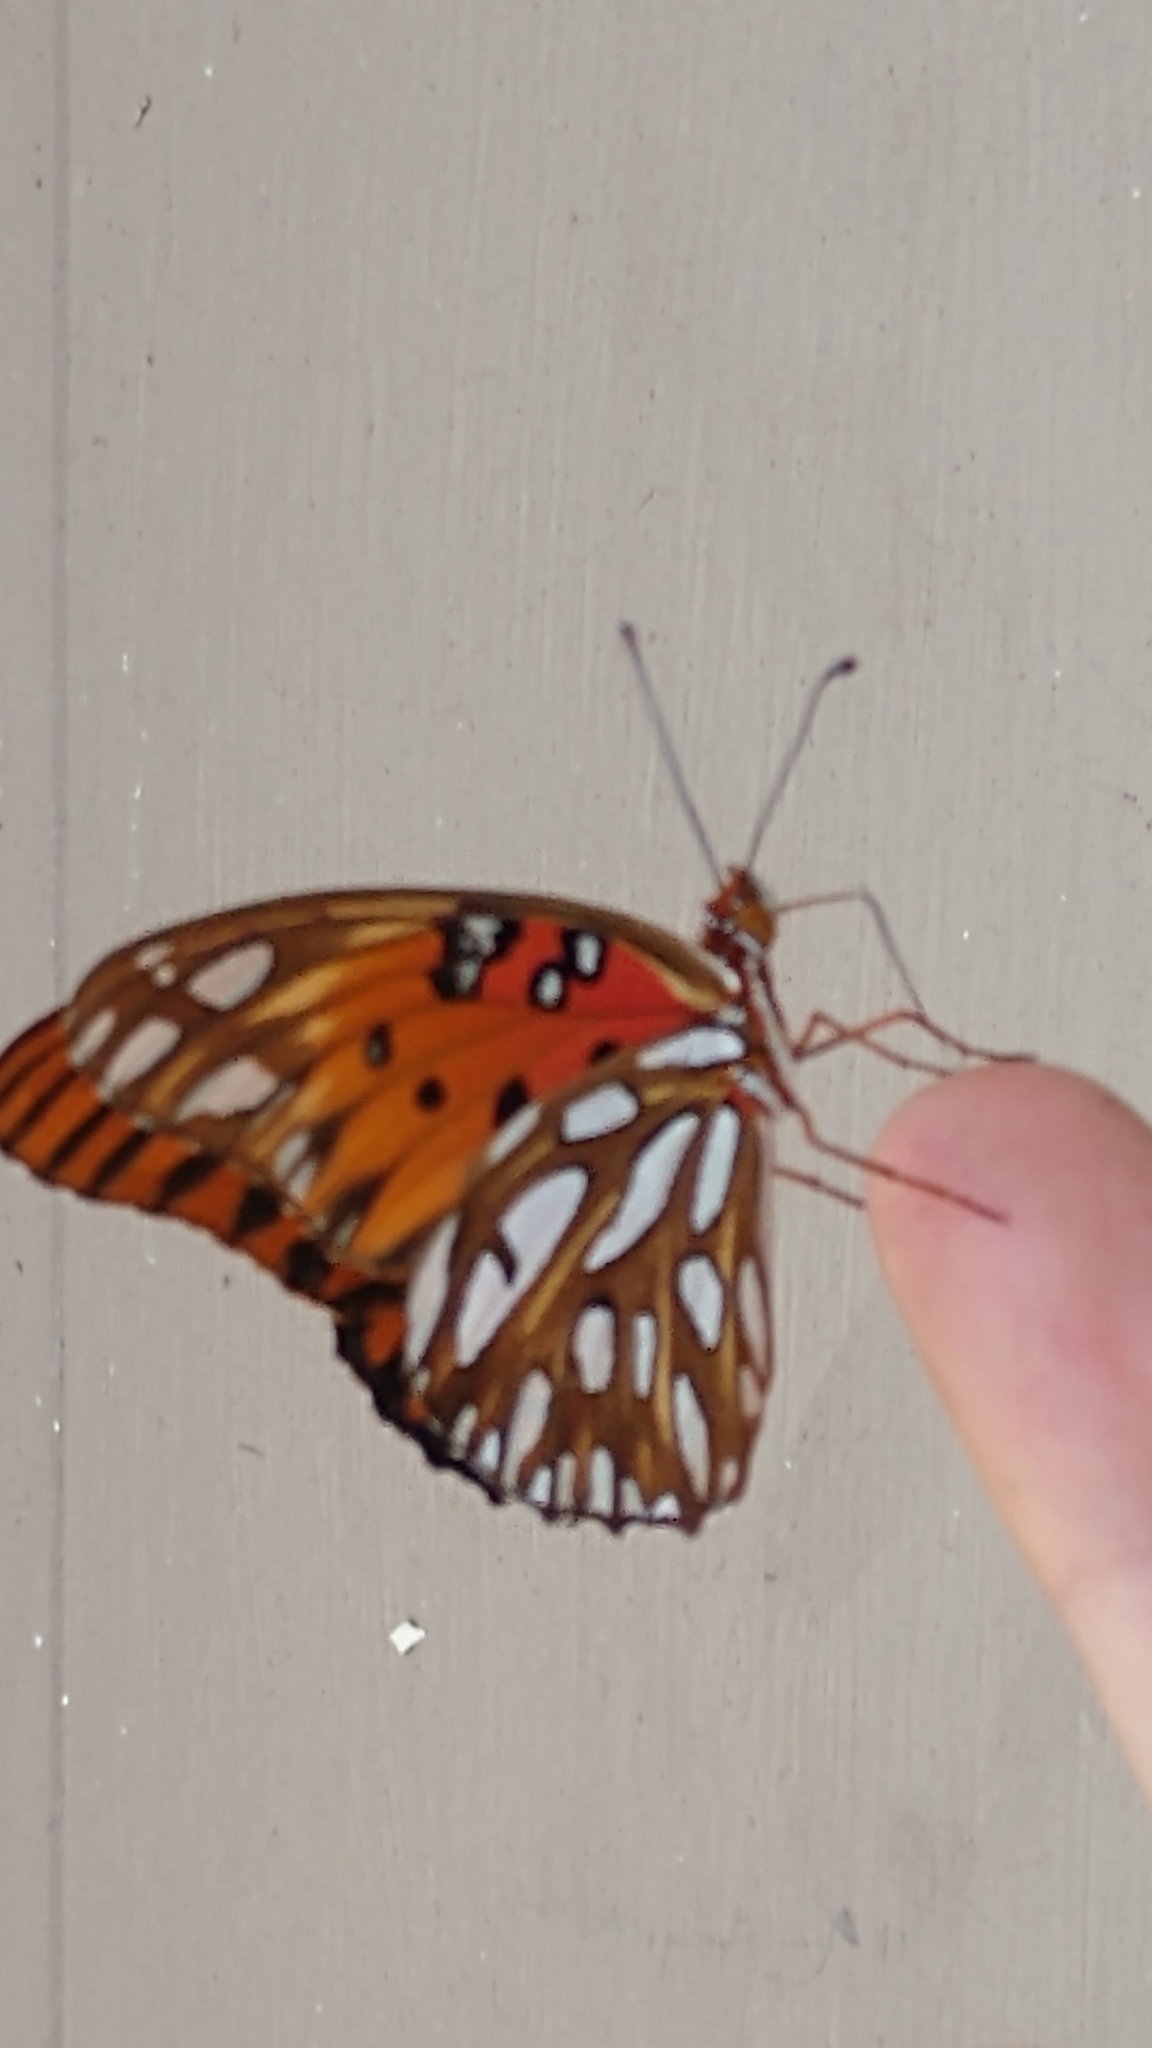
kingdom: Animalia
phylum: Arthropoda
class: Insecta
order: Lepidoptera
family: Nymphalidae
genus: Dione
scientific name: Dione vanillae
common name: Gulf fritillary
